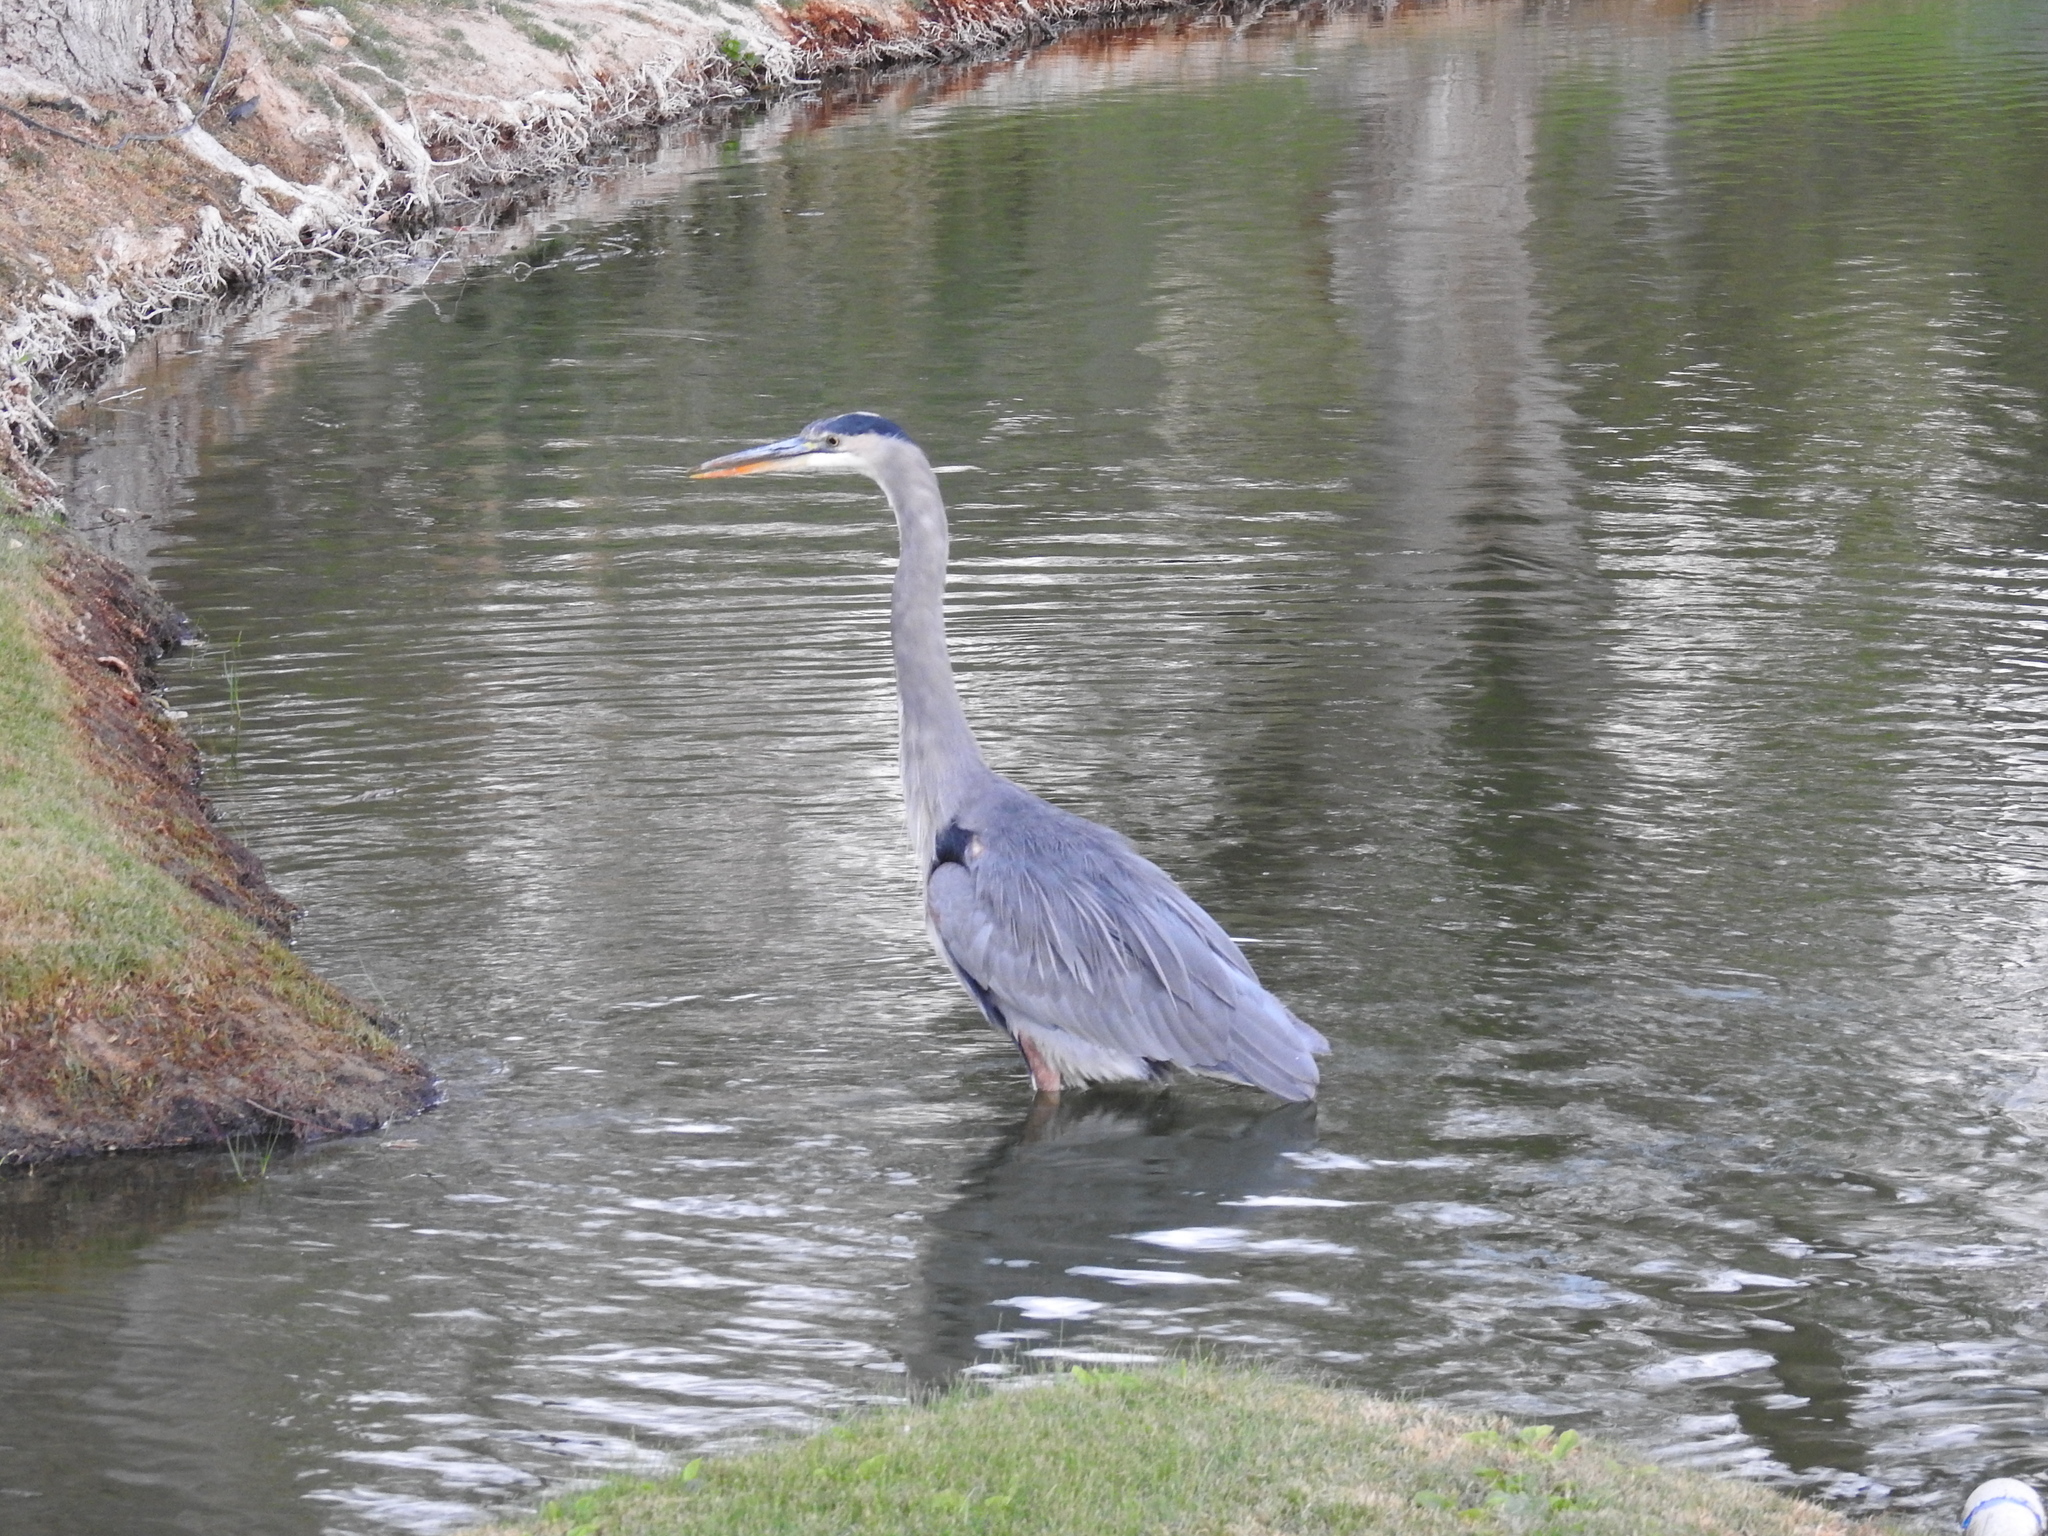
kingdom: Animalia
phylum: Chordata
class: Aves
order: Pelecaniformes
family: Ardeidae
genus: Ardea
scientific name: Ardea herodias
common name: Great blue heron
